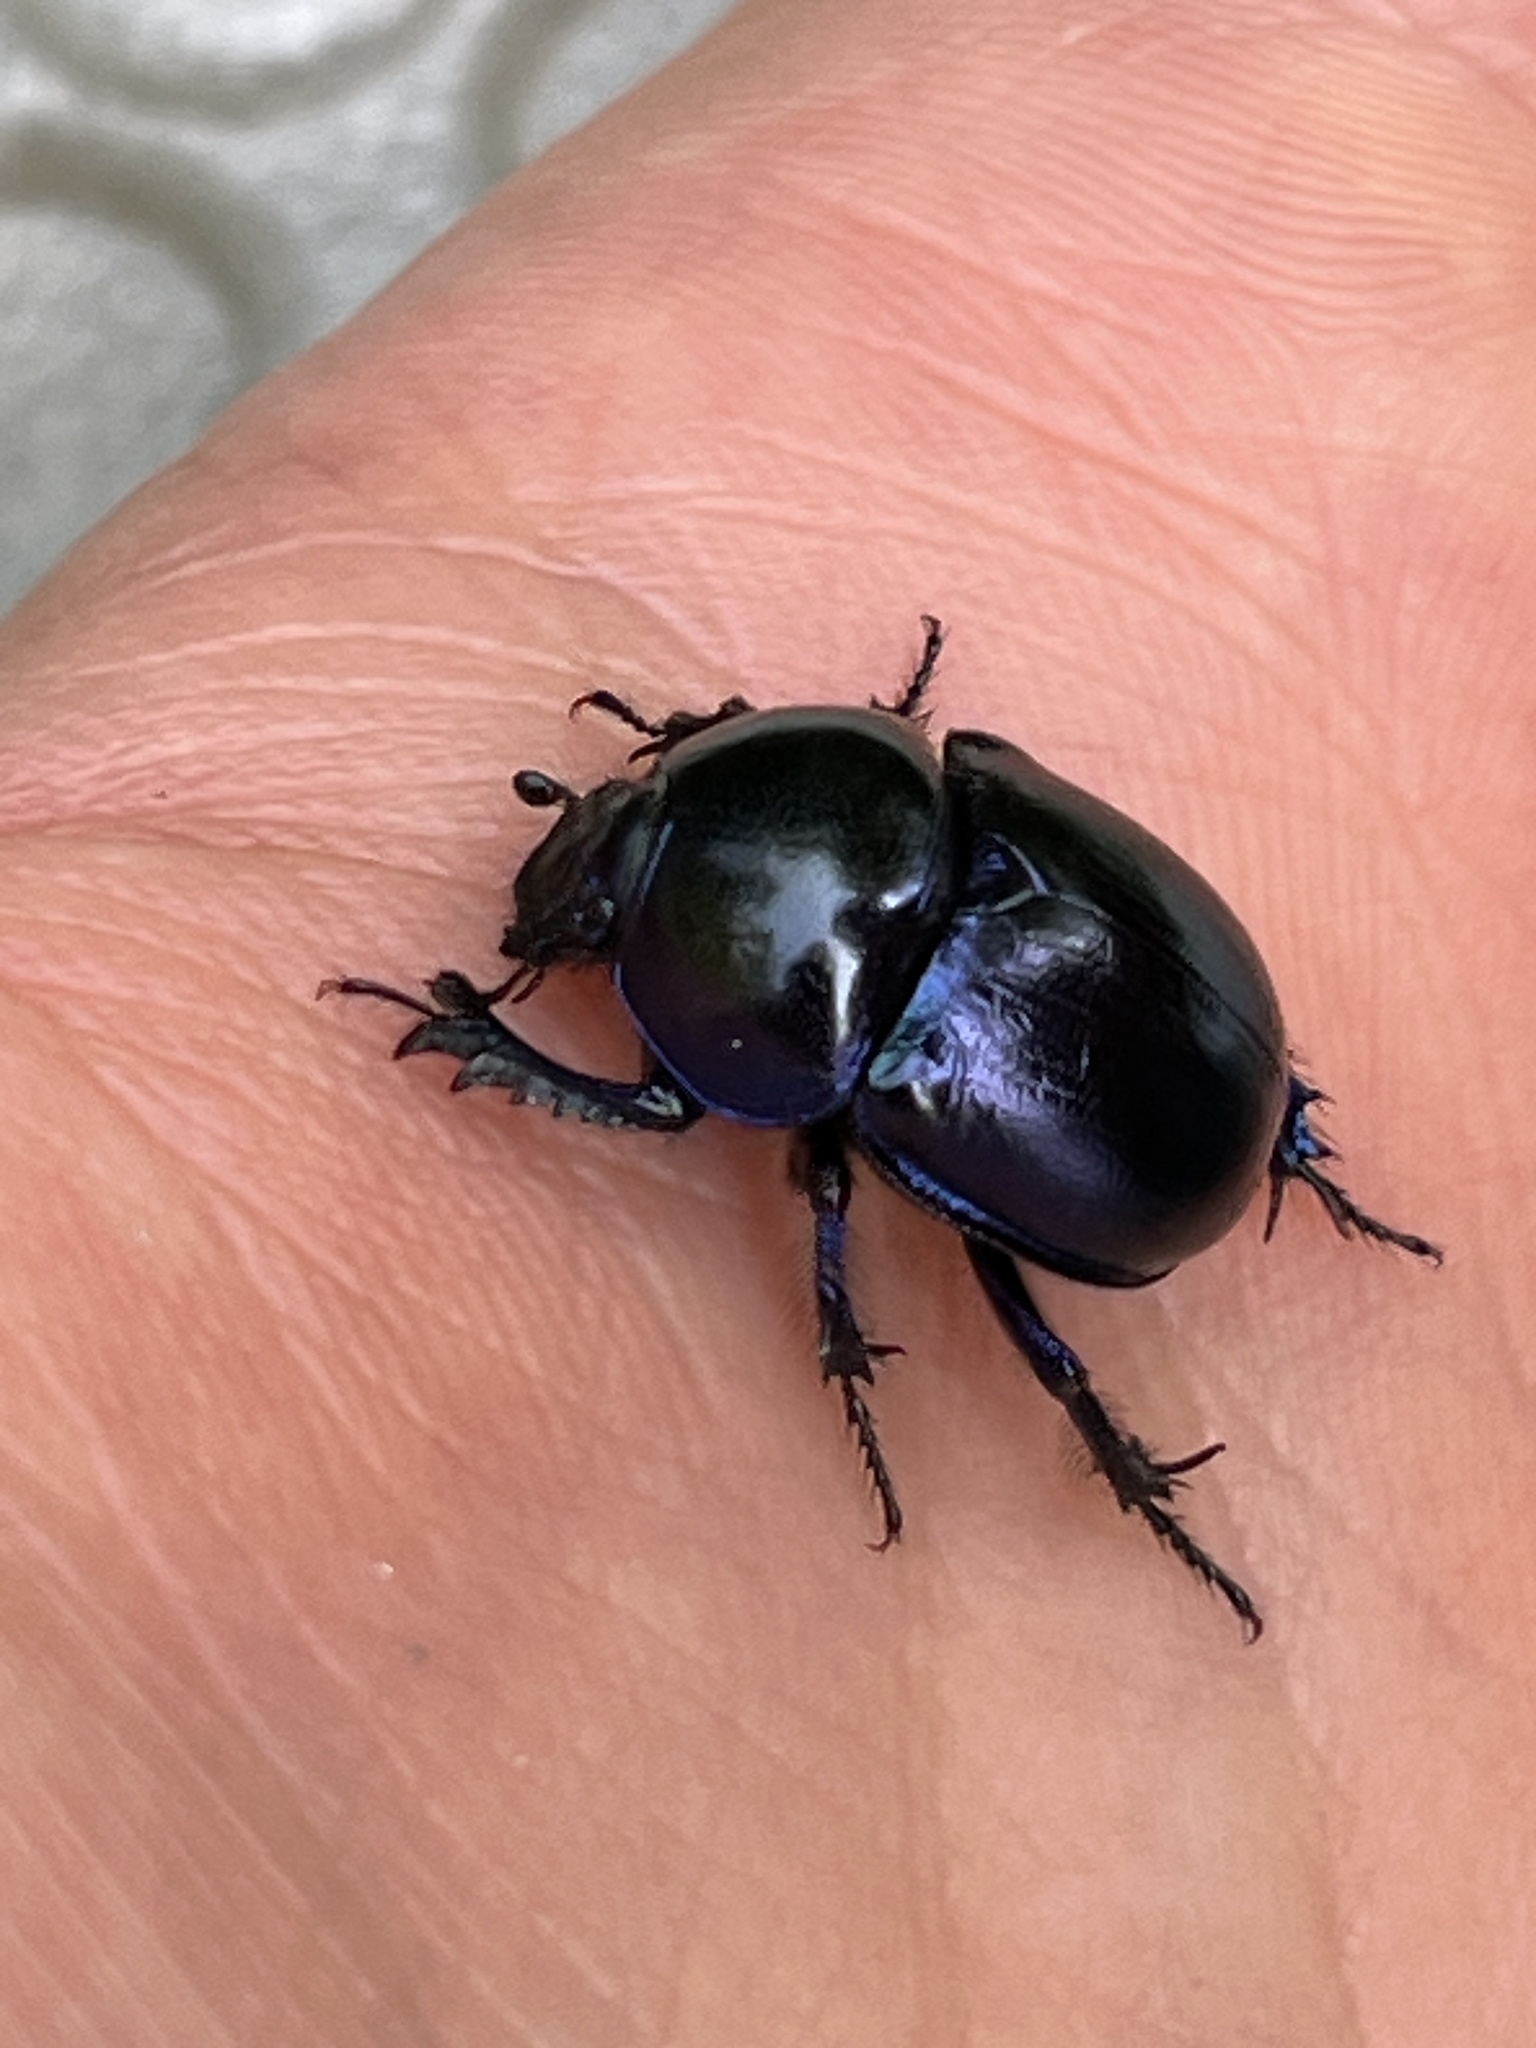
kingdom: Animalia
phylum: Arthropoda
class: Insecta
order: Coleoptera
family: Geotrupidae
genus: Trypocopris
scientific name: Trypocopris vernalis
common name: Spring dumbledor
